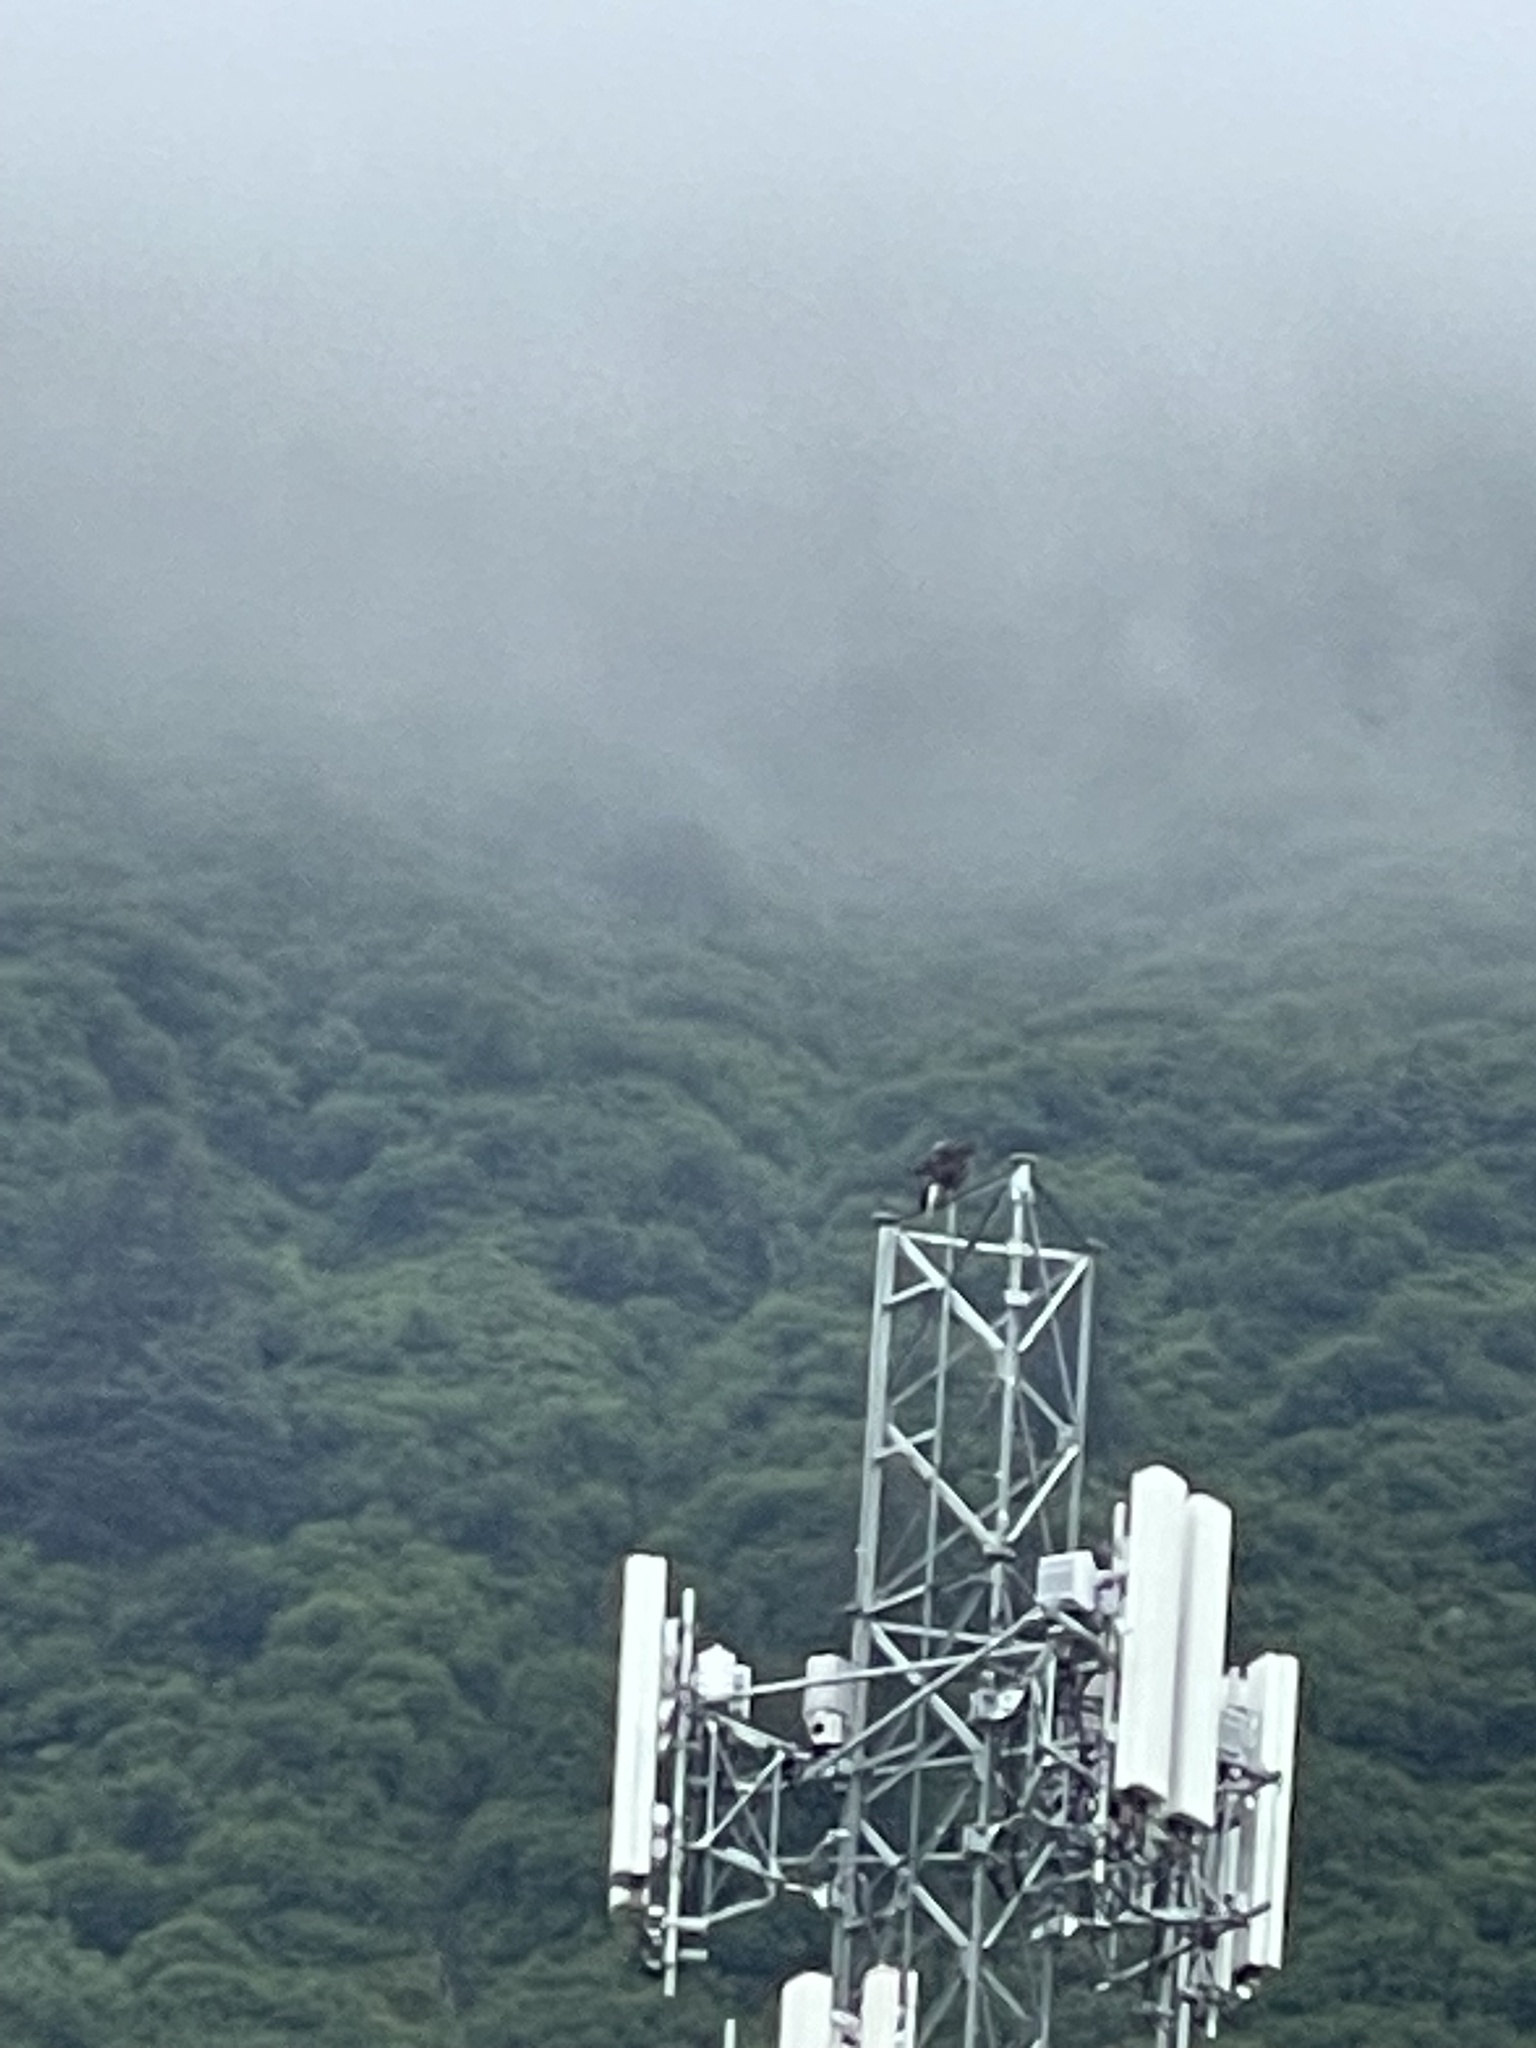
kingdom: Animalia
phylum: Chordata
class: Aves
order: Accipitriformes
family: Accipitridae
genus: Haliaeetus
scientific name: Haliaeetus leucocephalus
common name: Bald eagle
